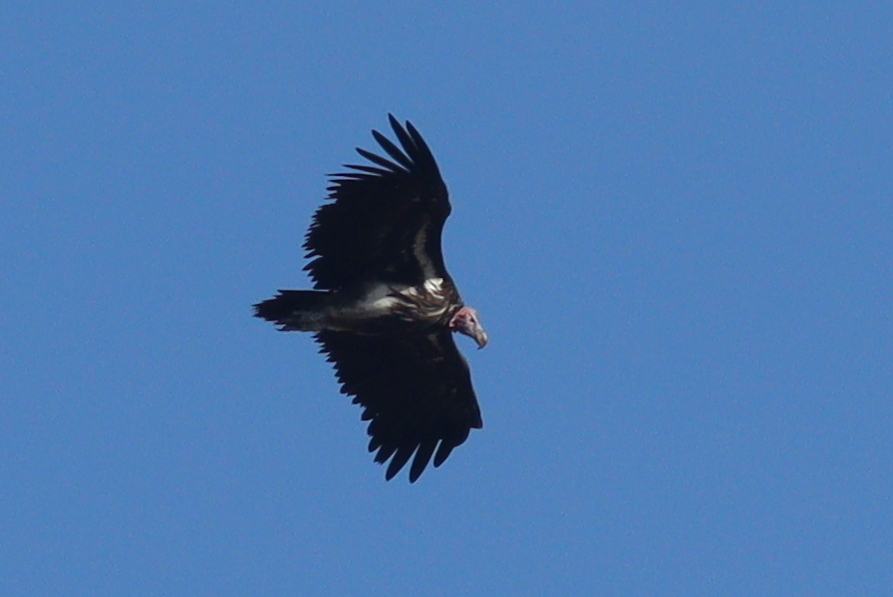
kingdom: Animalia
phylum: Chordata
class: Aves
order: Accipitriformes
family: Accipitridae
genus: Torgos
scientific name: Torgos tracheliotos
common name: Lappet-faced vulture
